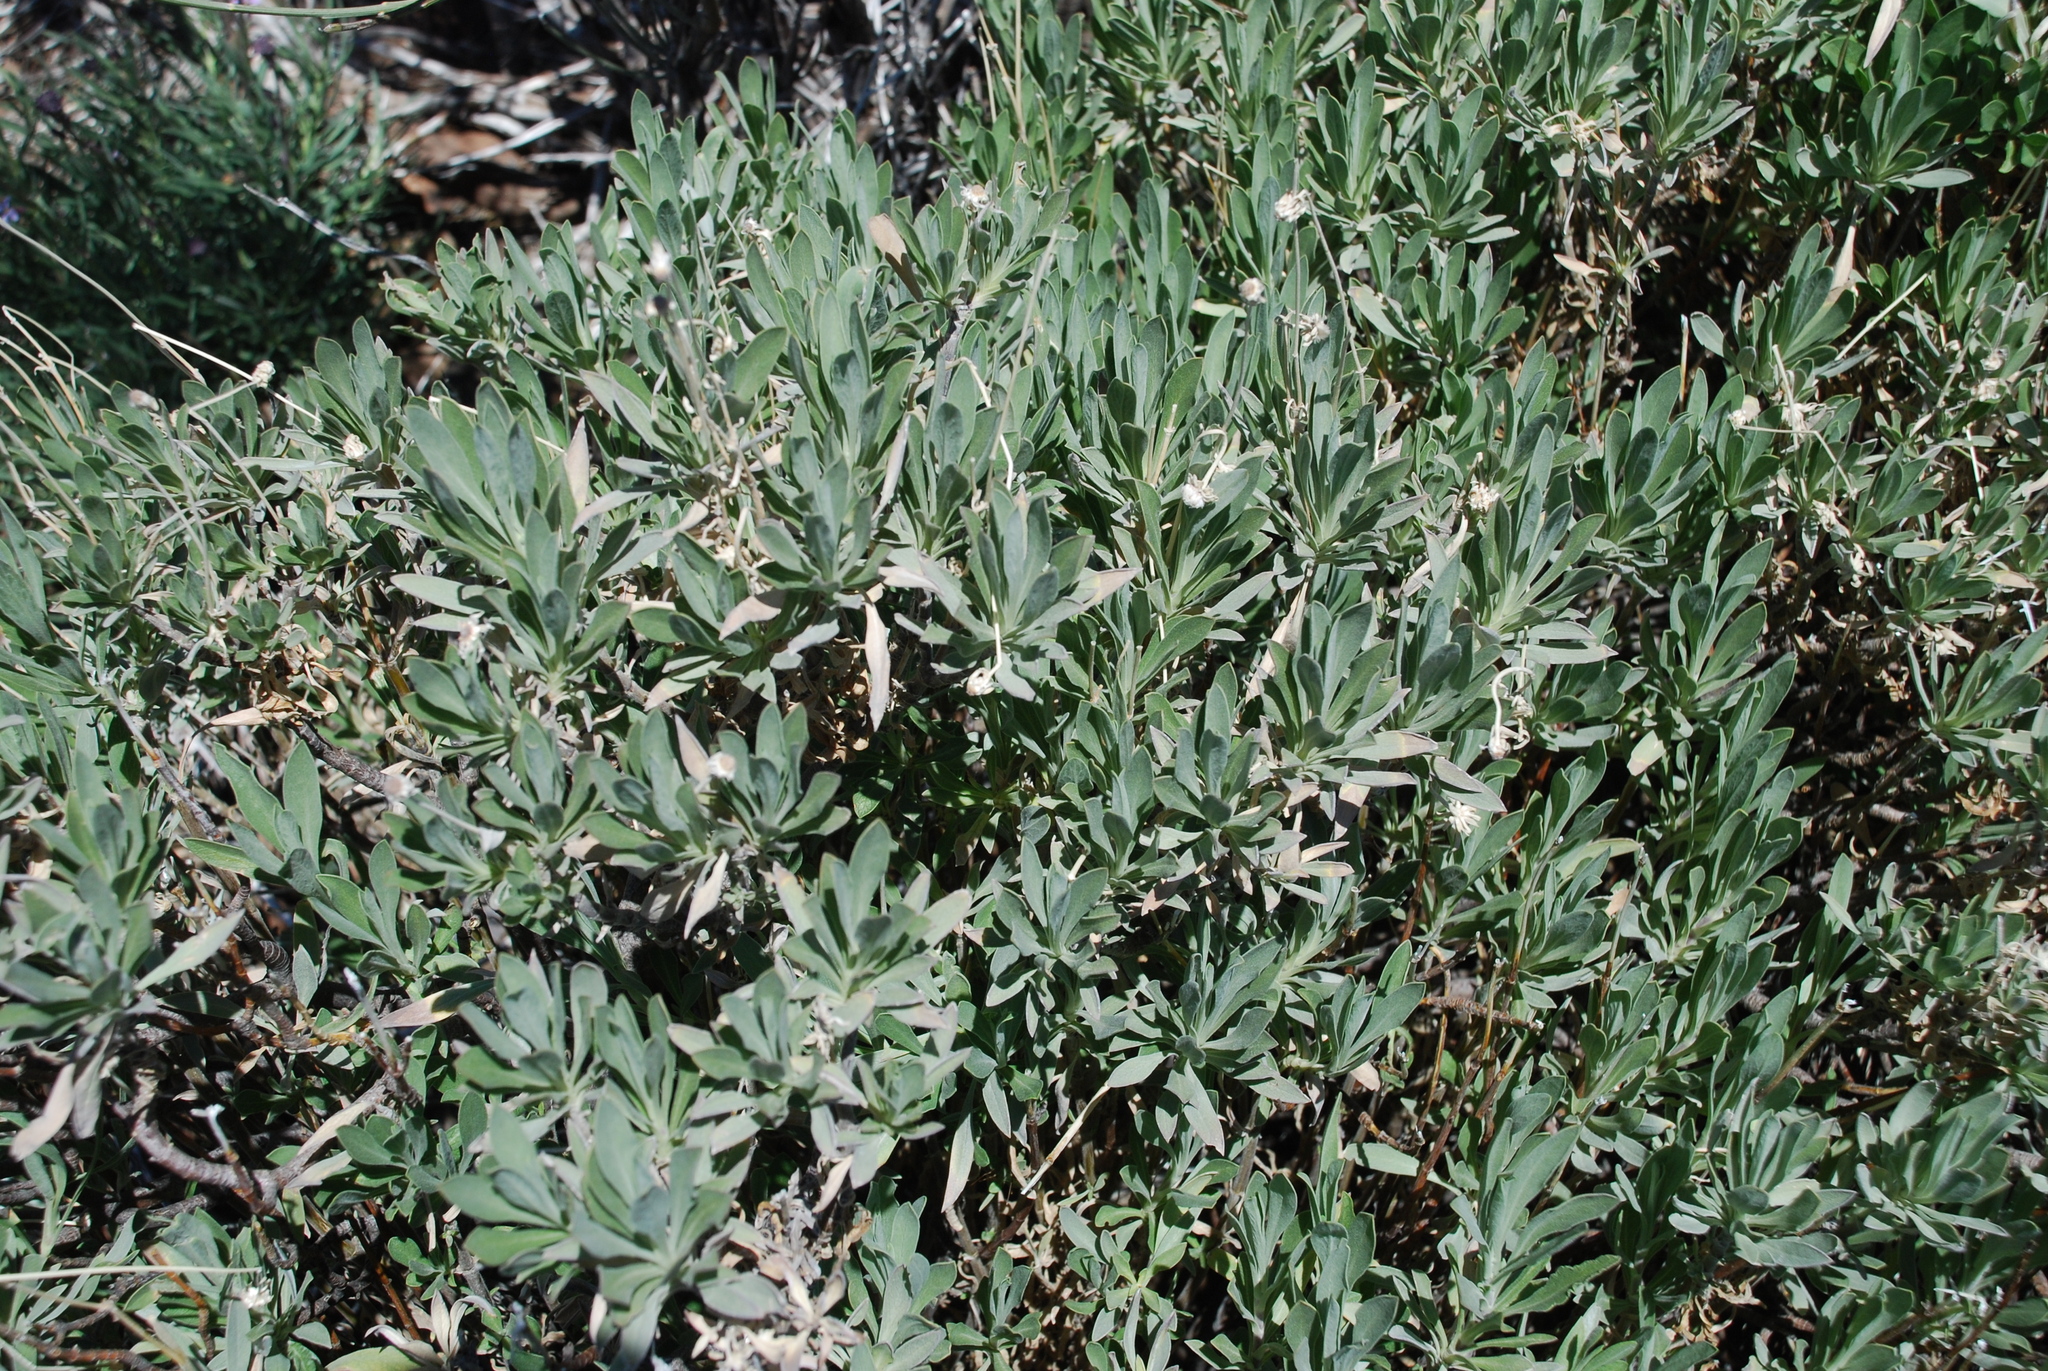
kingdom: Plantae
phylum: Tracheophyta
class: Magnoliopsida
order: Dipsacales
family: Caprifoliaceae
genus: Pterocephalus
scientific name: Pterocephalus lasiospermus
